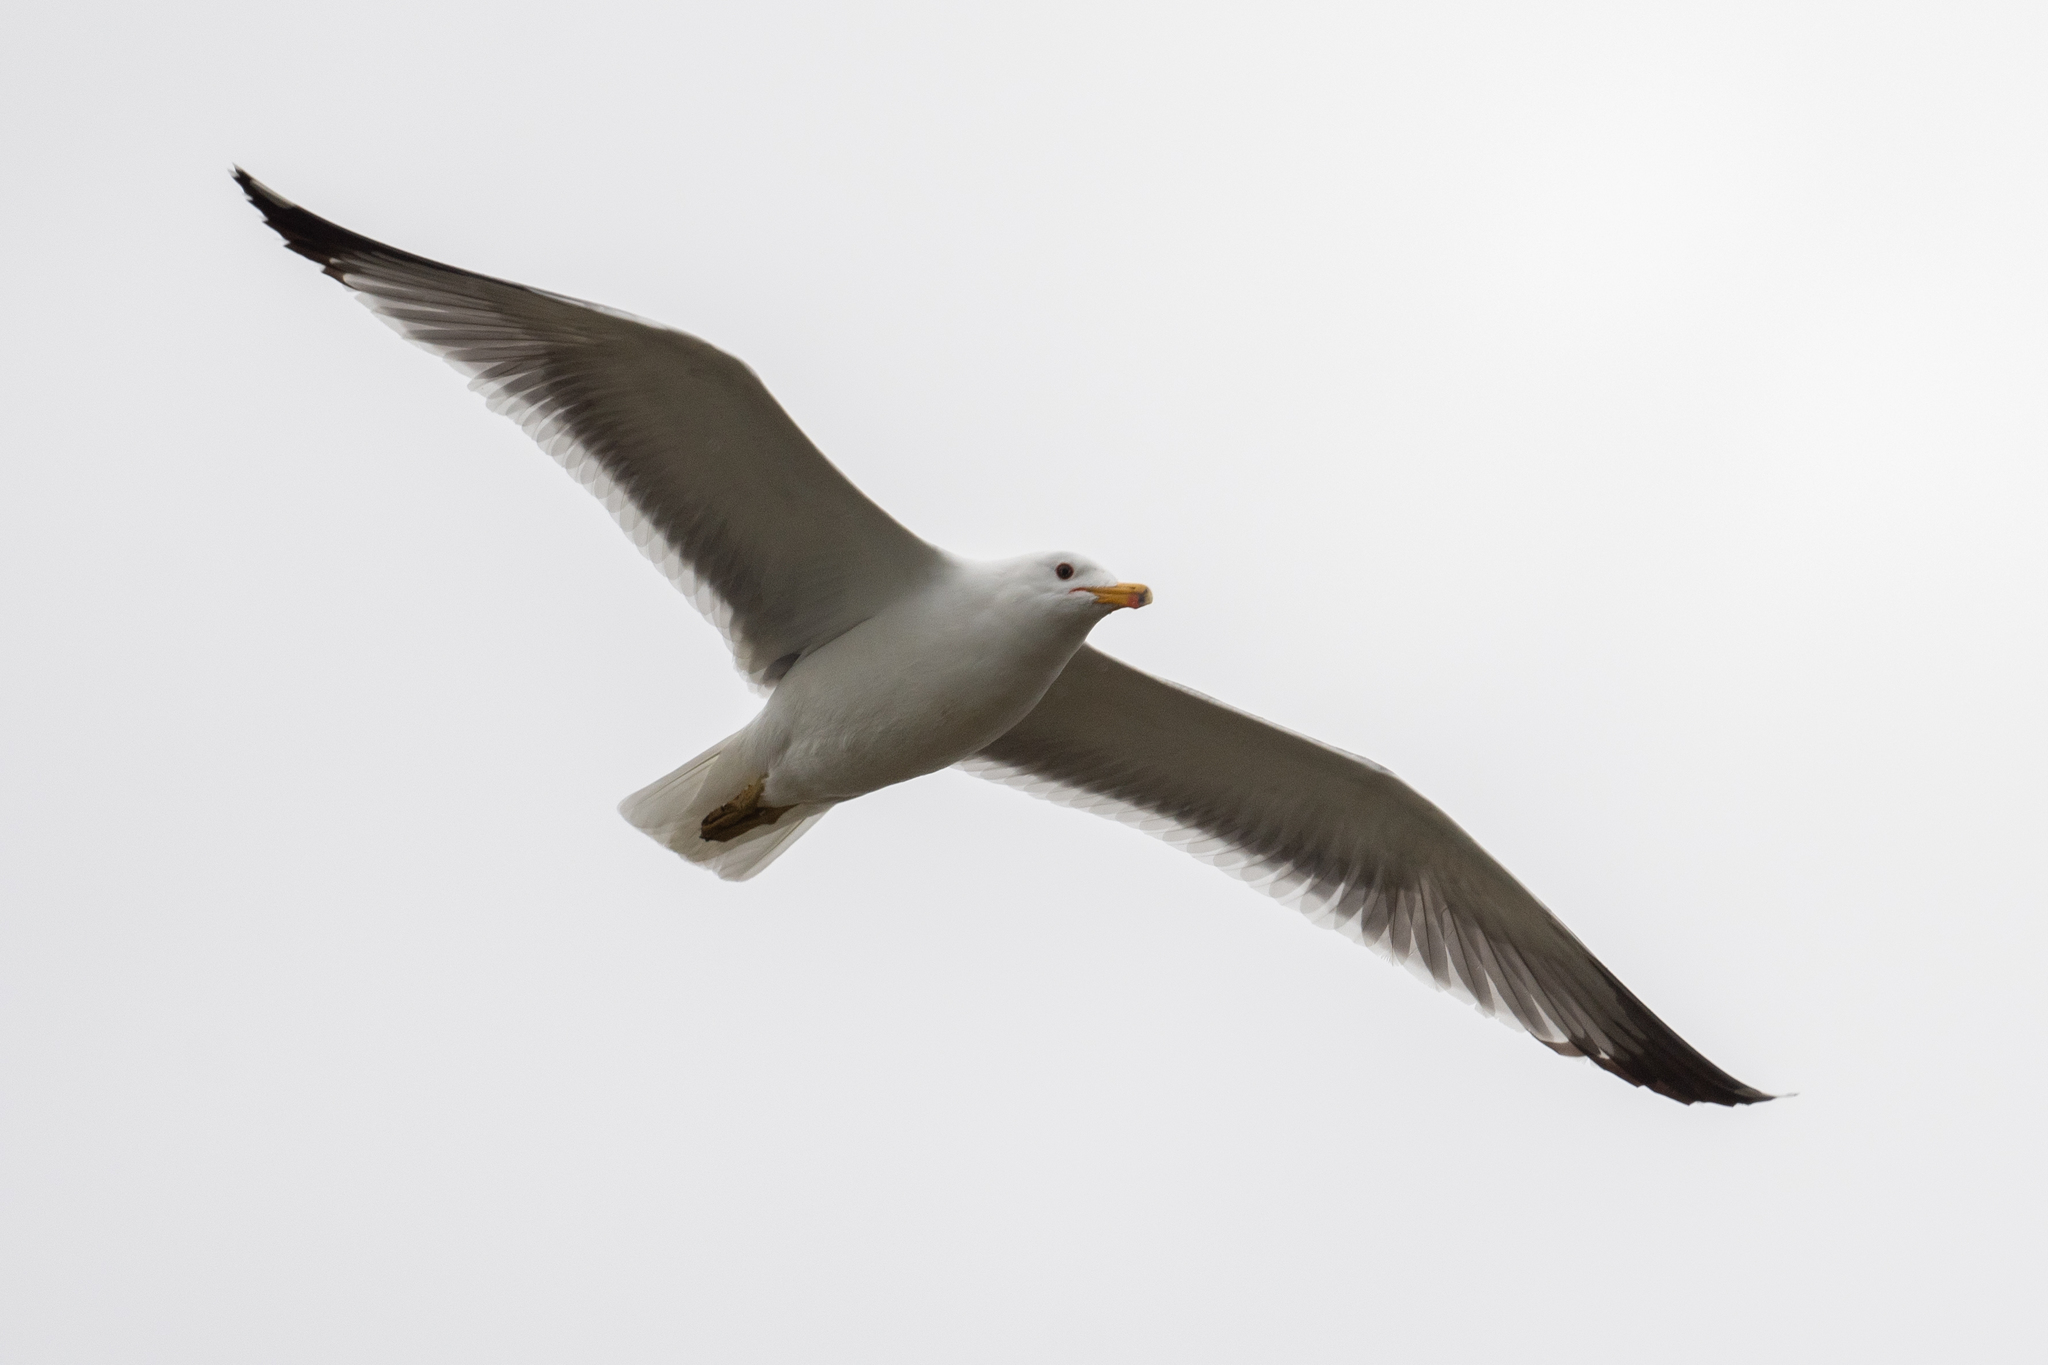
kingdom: Animalia
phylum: Chordata
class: Aves
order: Charadriiformes
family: Laridae
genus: Larus
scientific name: Larus californicus
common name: California gull
